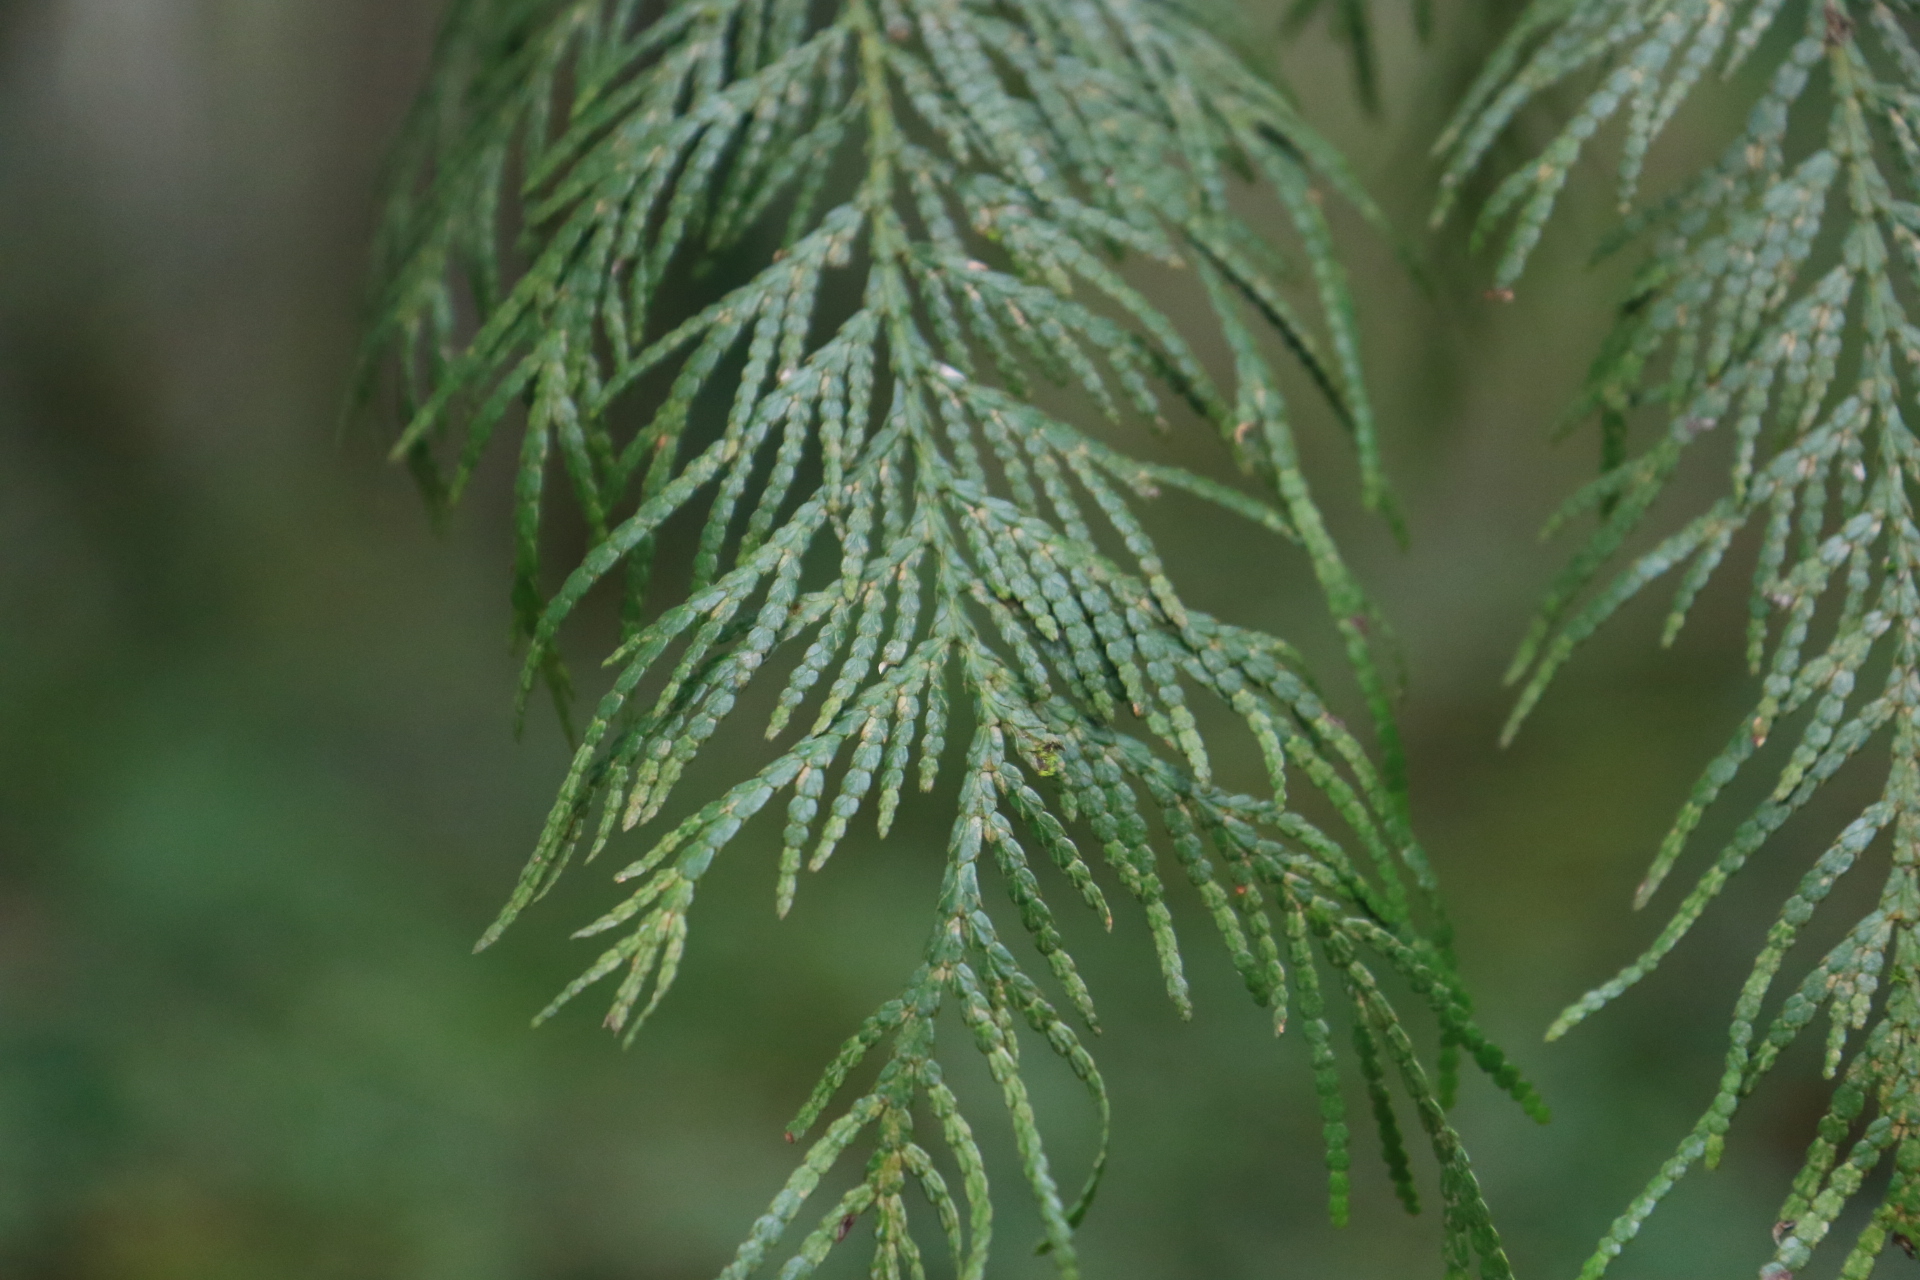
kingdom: Plantae
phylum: Tracheophyta
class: Pinopsida
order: Pinales
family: Cupressaceae
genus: Thuja
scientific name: Thuja plicata
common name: Western red-cedar
